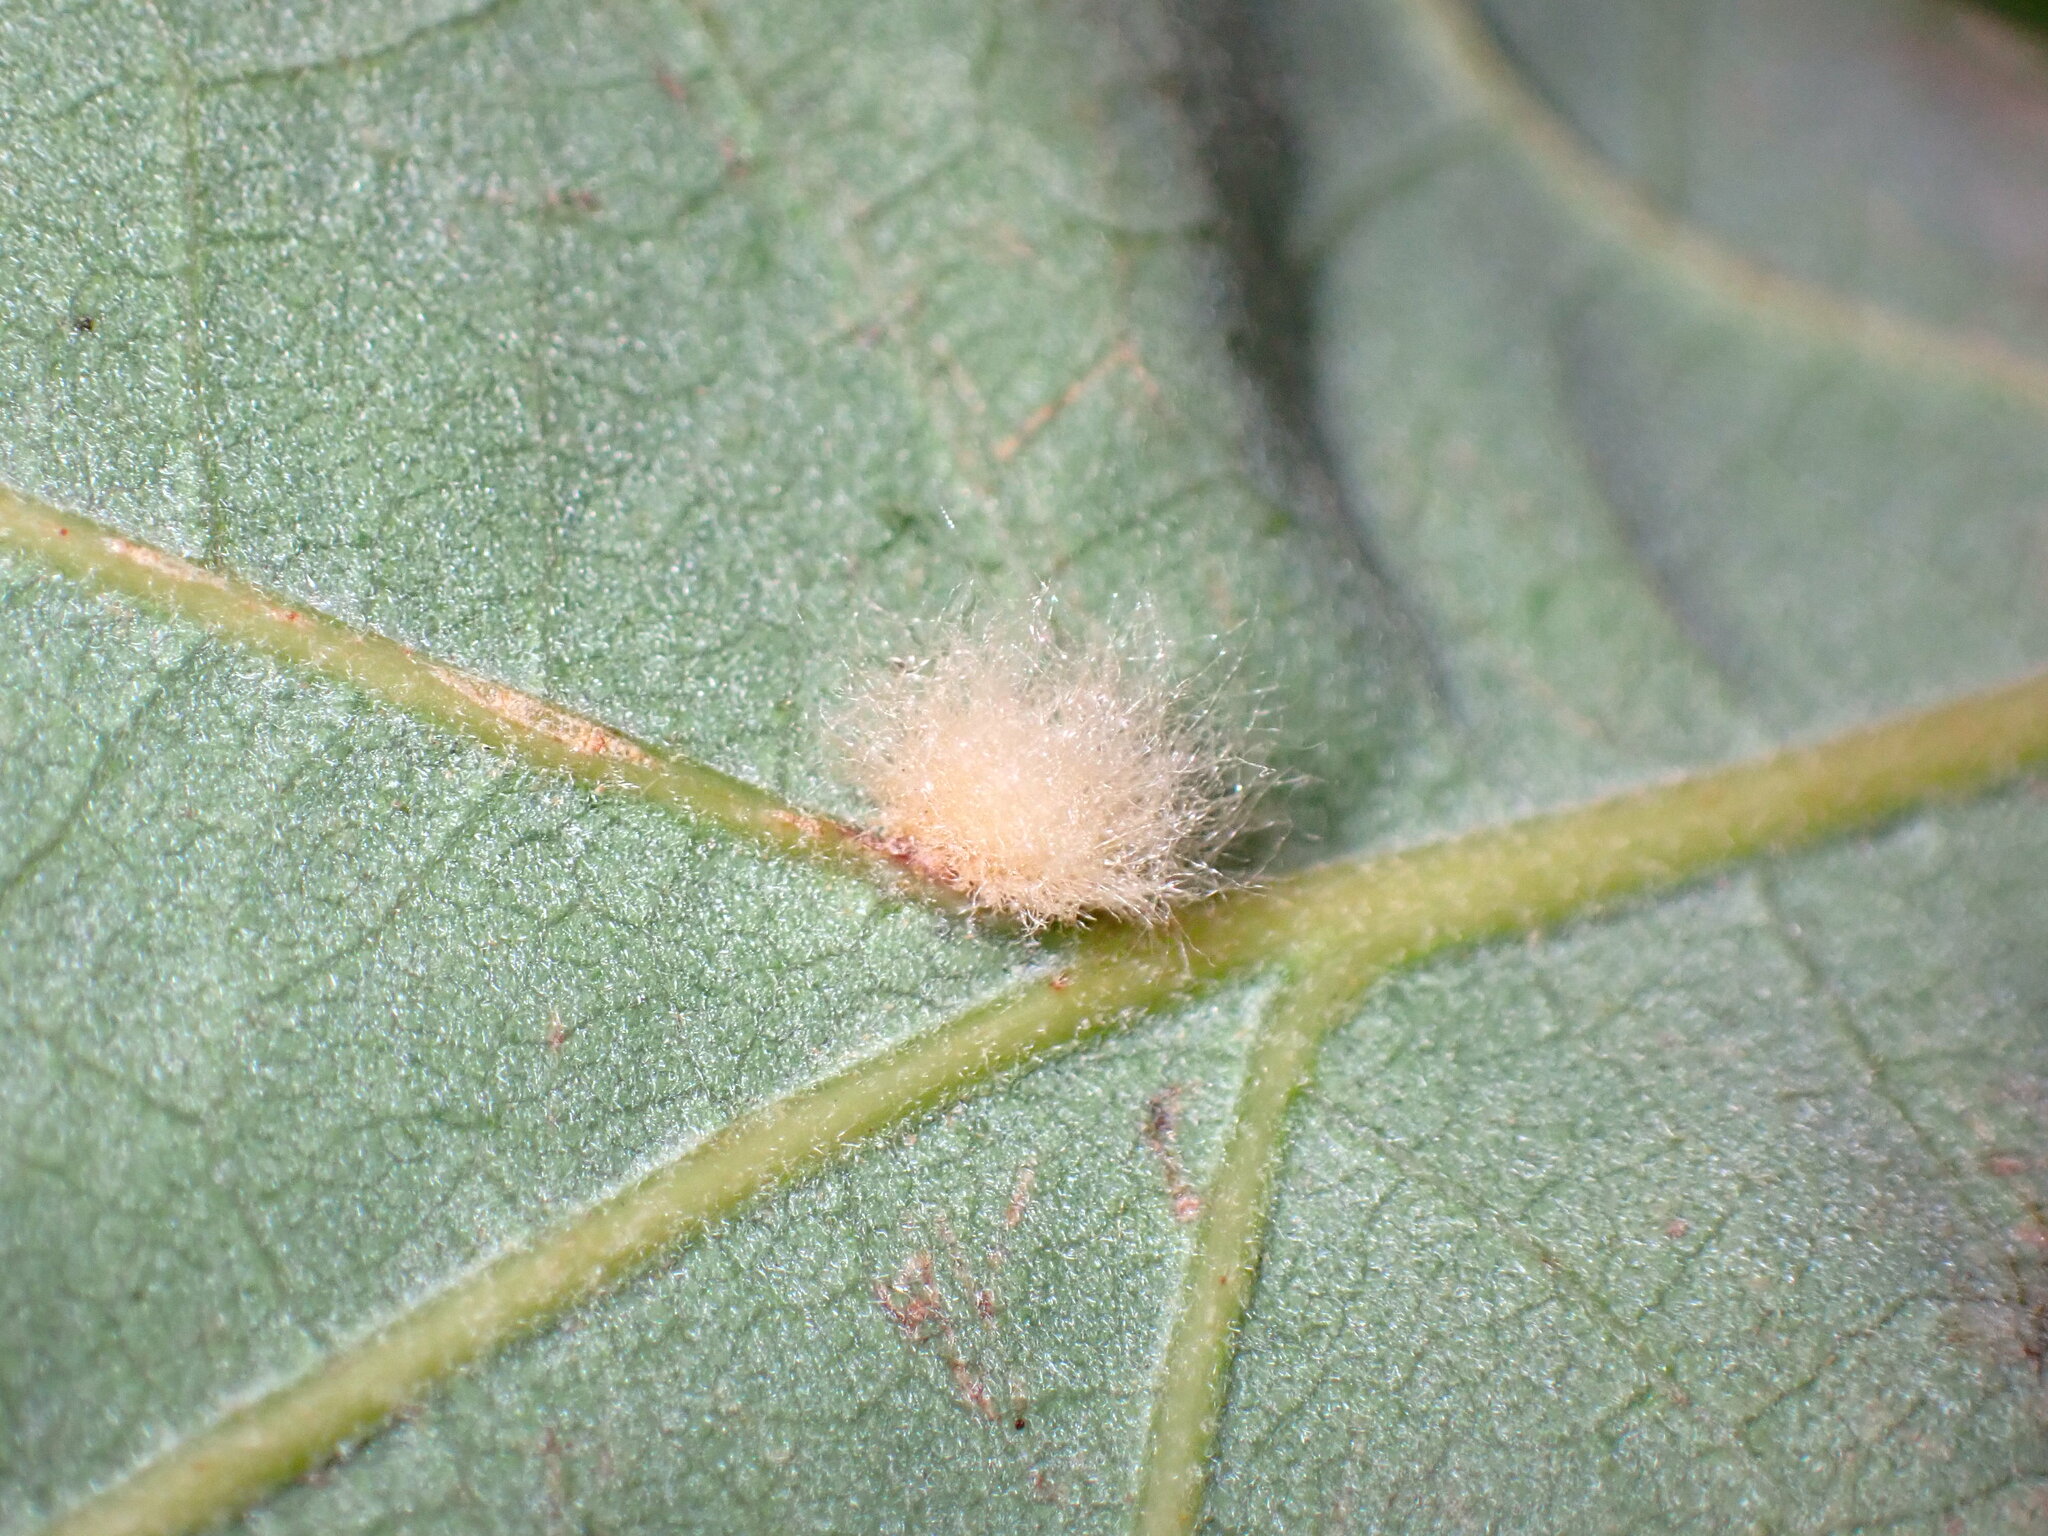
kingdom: Animalia
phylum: Arthropoda
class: Insecta
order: Hymenoptera
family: Cynipidae
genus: Andricus
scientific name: Andricus Druon fullawayi
